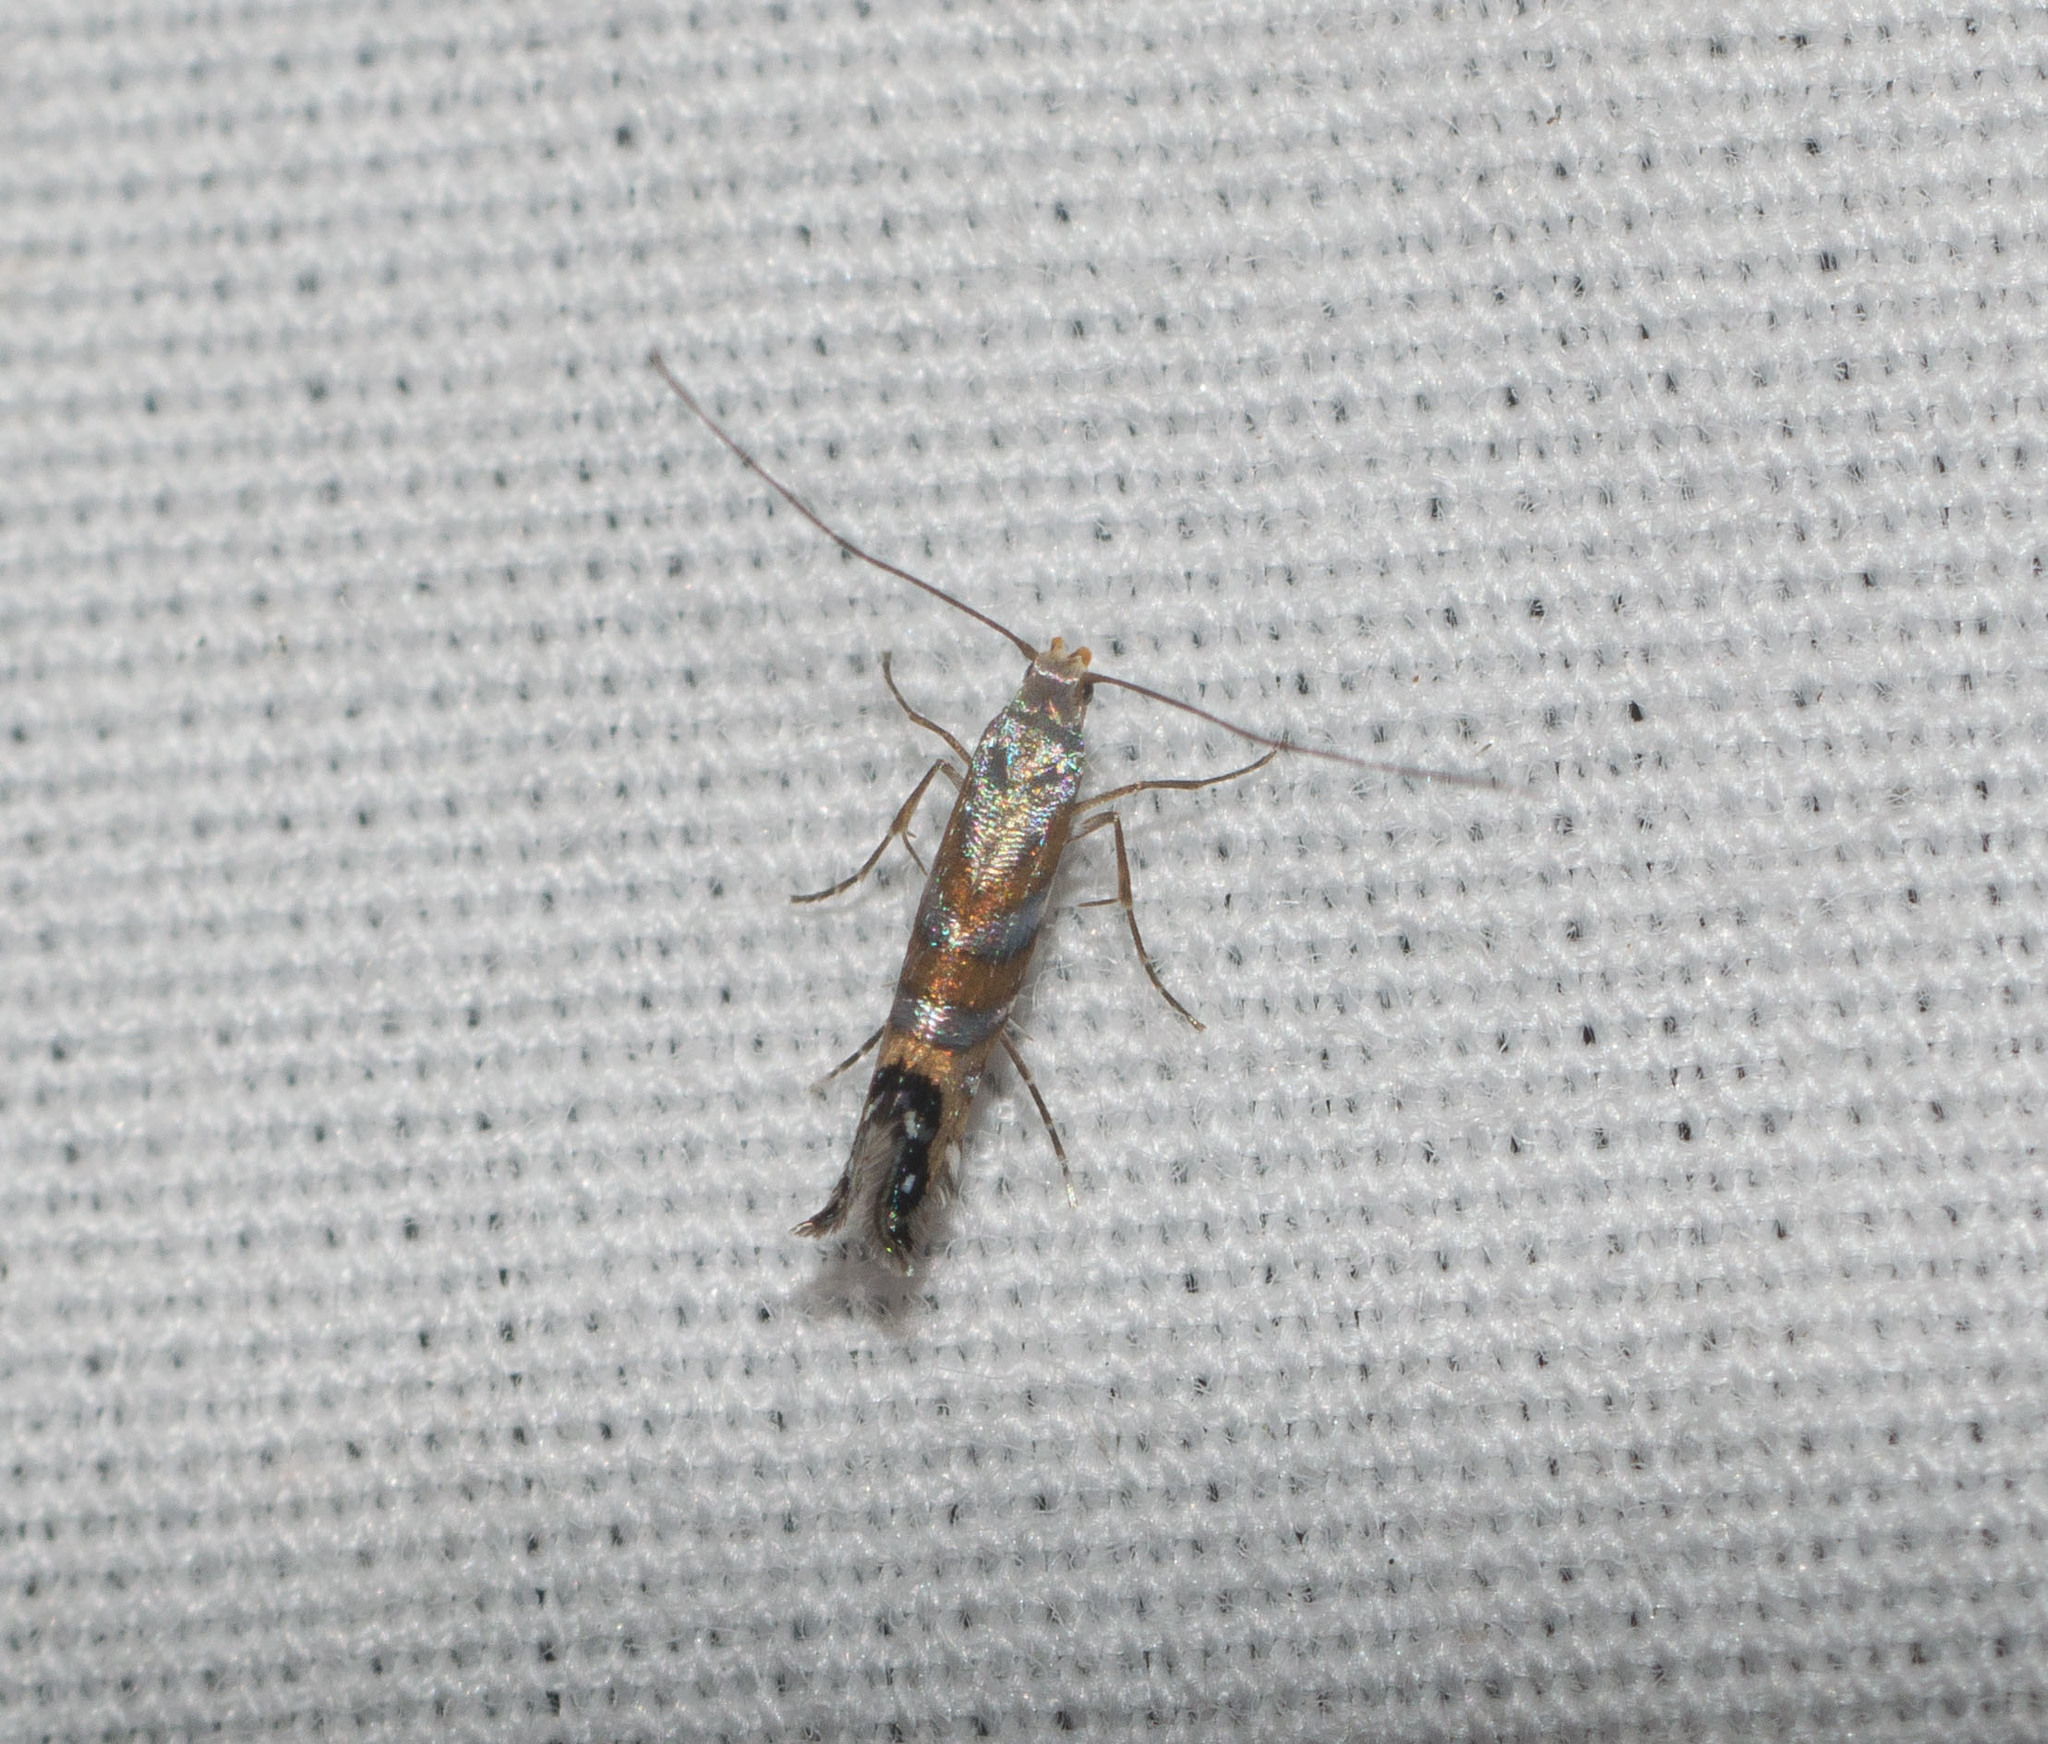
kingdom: Animalia
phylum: Arthropoda
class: Insecta
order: Lepidoptera
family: Gracillariidae
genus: Philodoria
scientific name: Philodoria splendida
